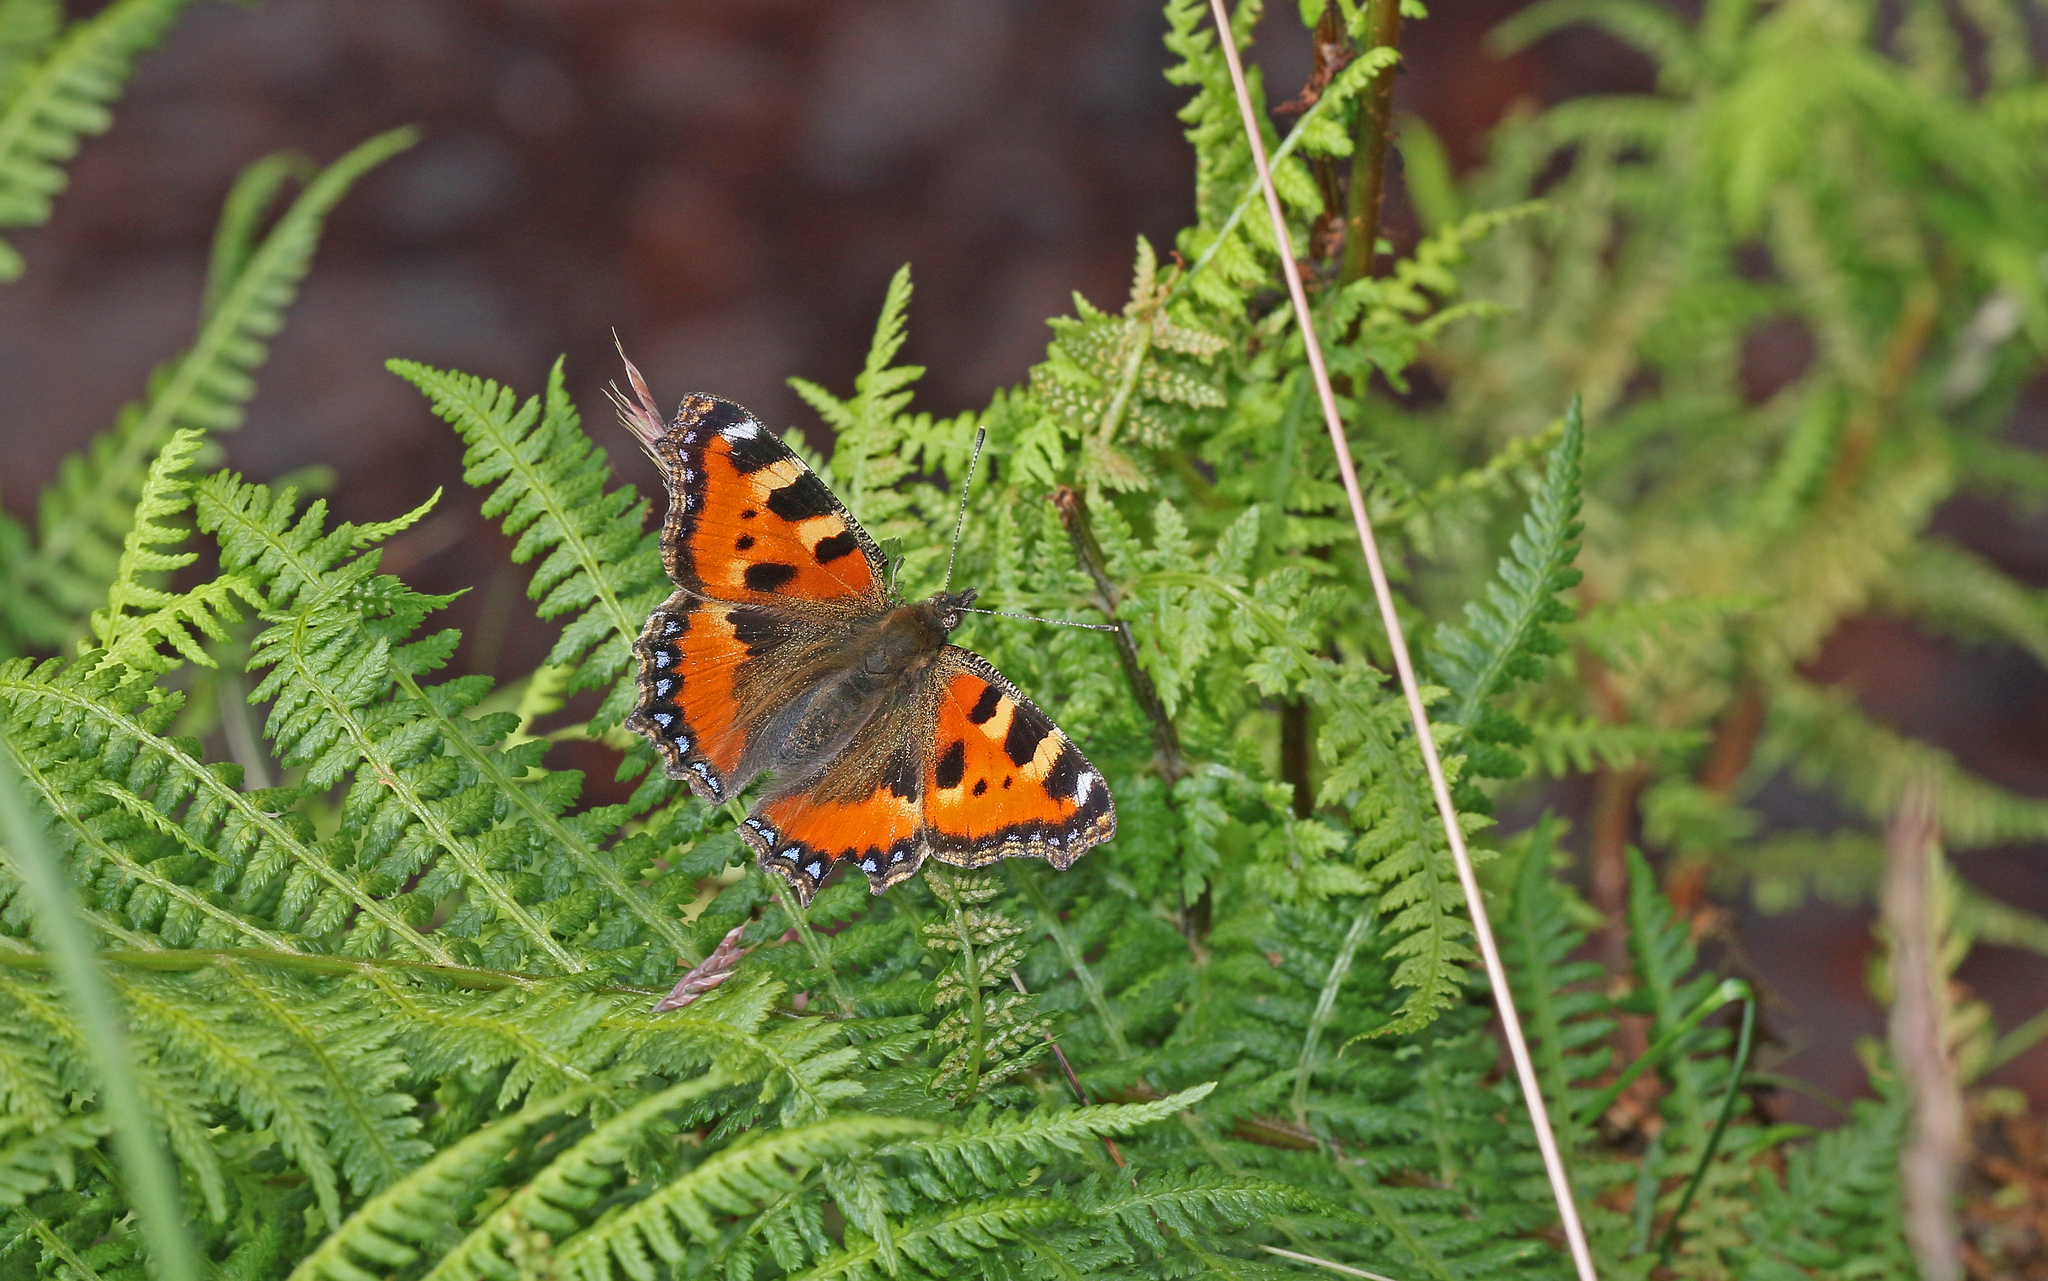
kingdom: Animalia
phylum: Arthropoda
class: Insecta
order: Lepidoptera
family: Nymphalidae
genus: Aglais
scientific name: Aglais urticae
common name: Small tortoiseshell
